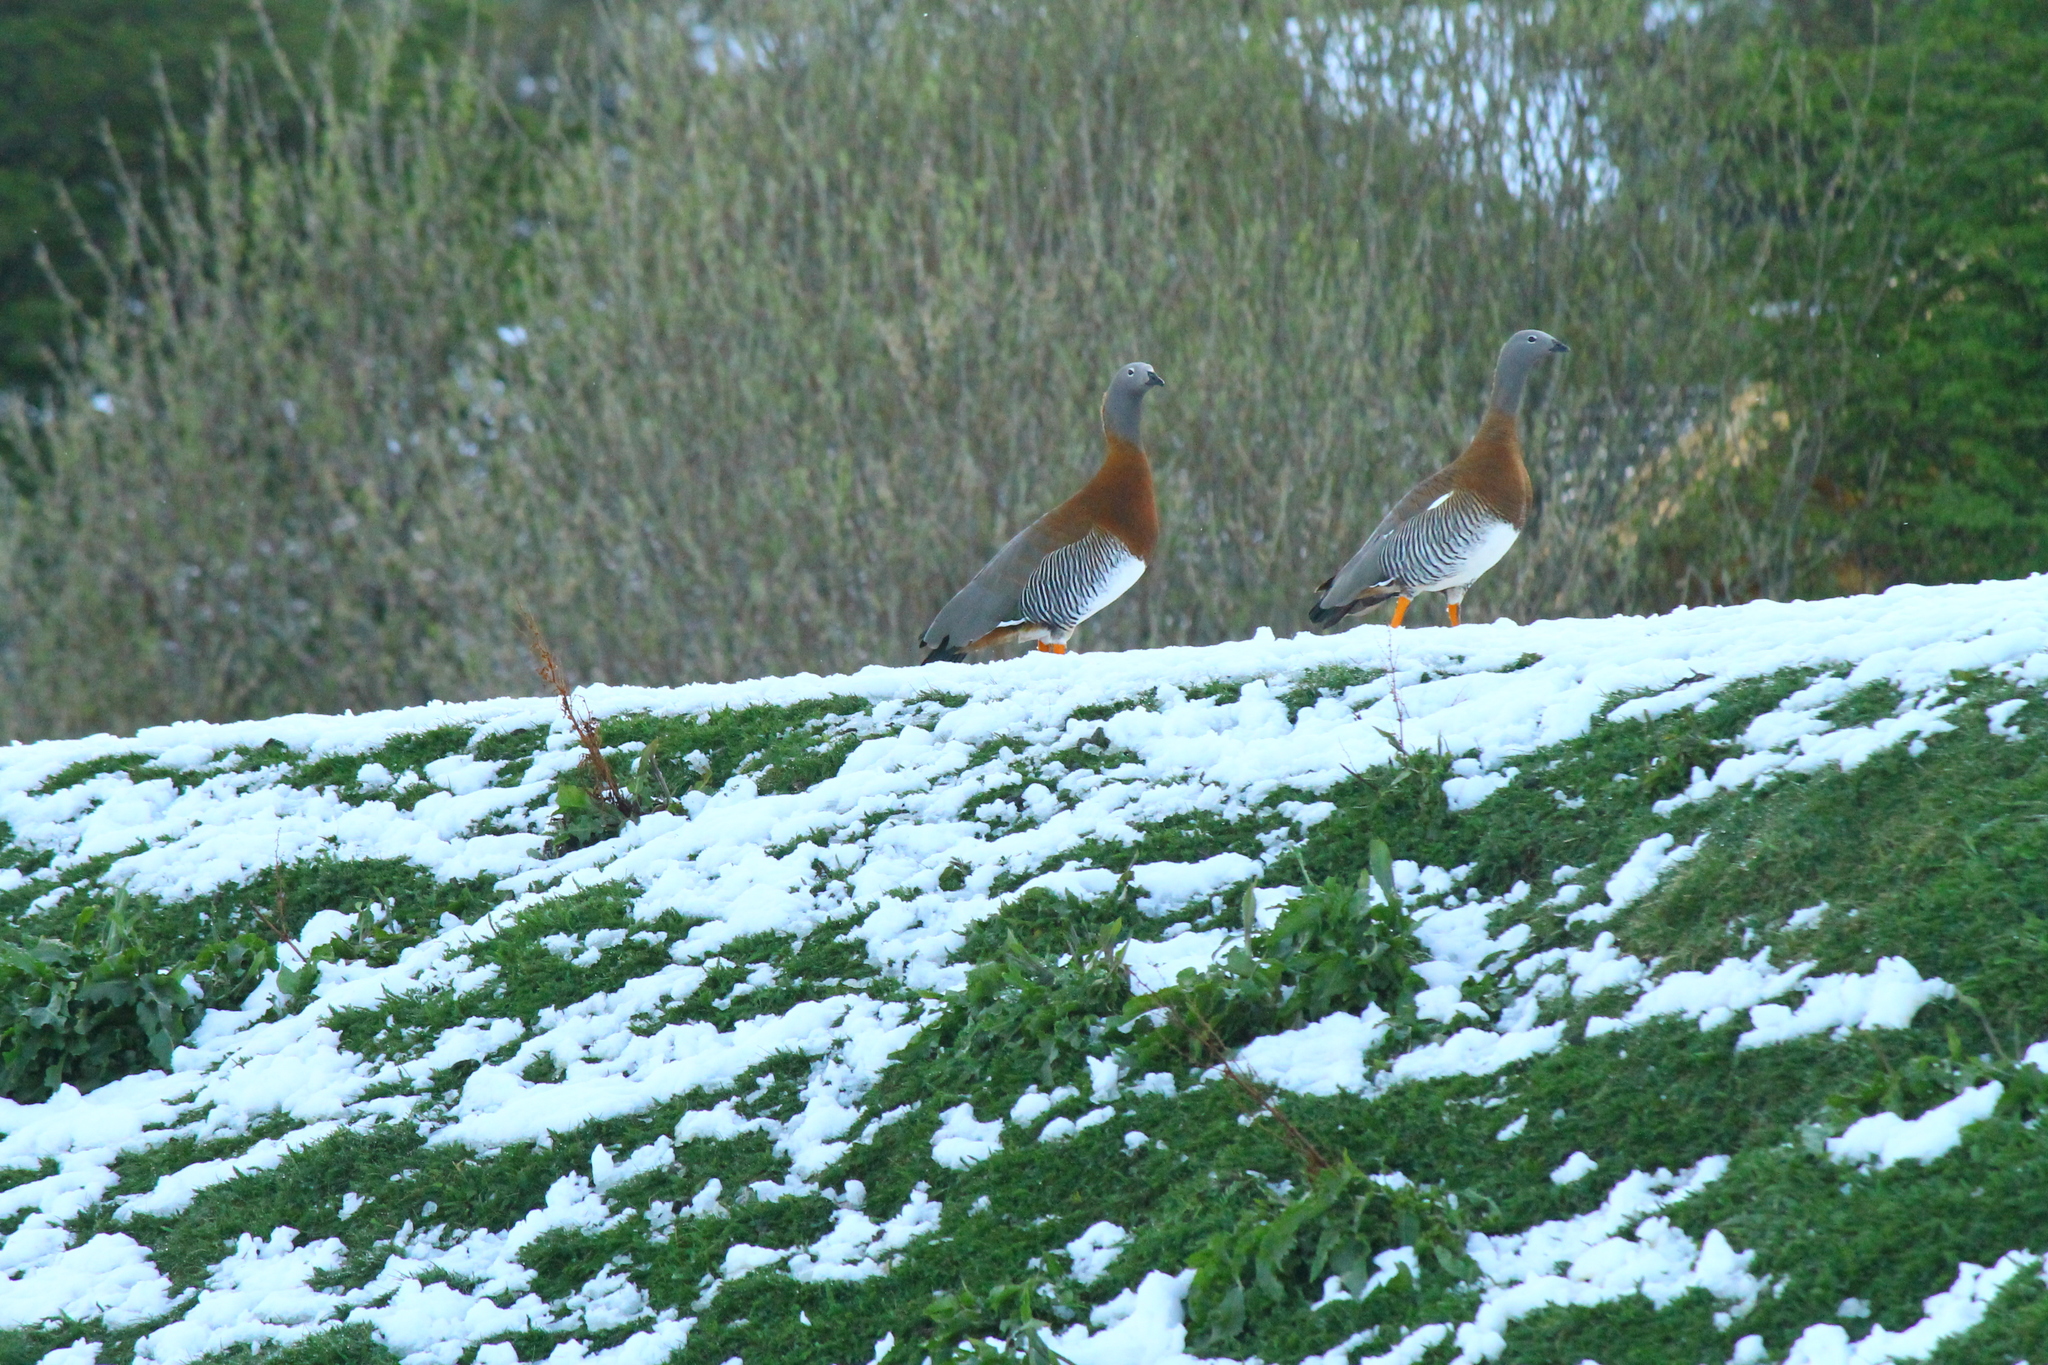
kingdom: Animalia
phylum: Chordata
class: Aves
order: Anseriformes
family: Anatidae
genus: Chloephaga
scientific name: Chloephaga poliocephala
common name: Ashy-headed goose
